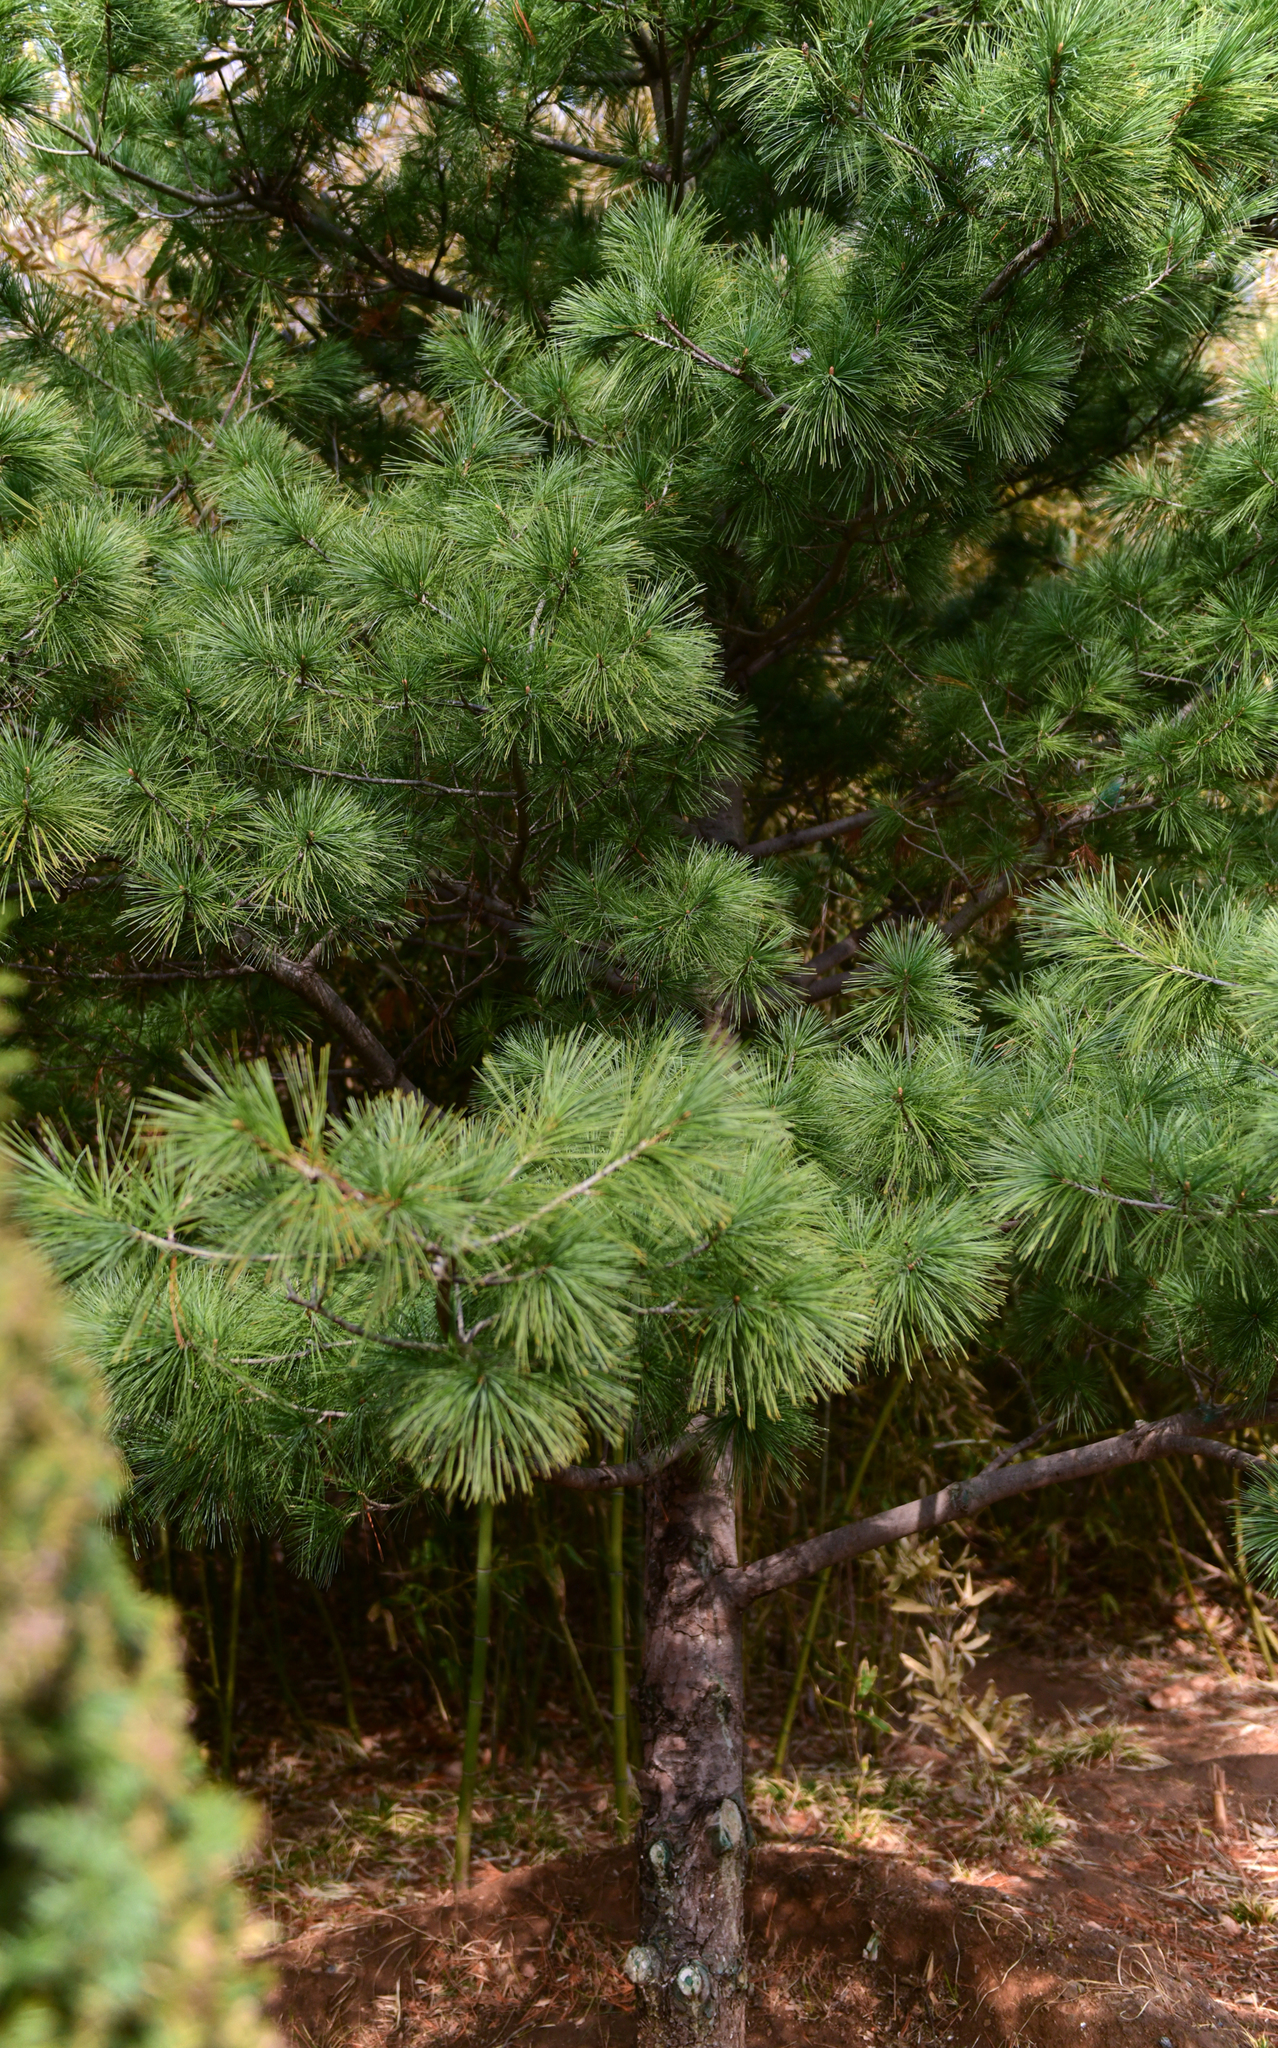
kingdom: Plantae
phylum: Tracheophyta
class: Pinopsida
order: Pinales
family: Pinaceae
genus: Pinus
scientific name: Pinus armandii
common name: Armand's pine
